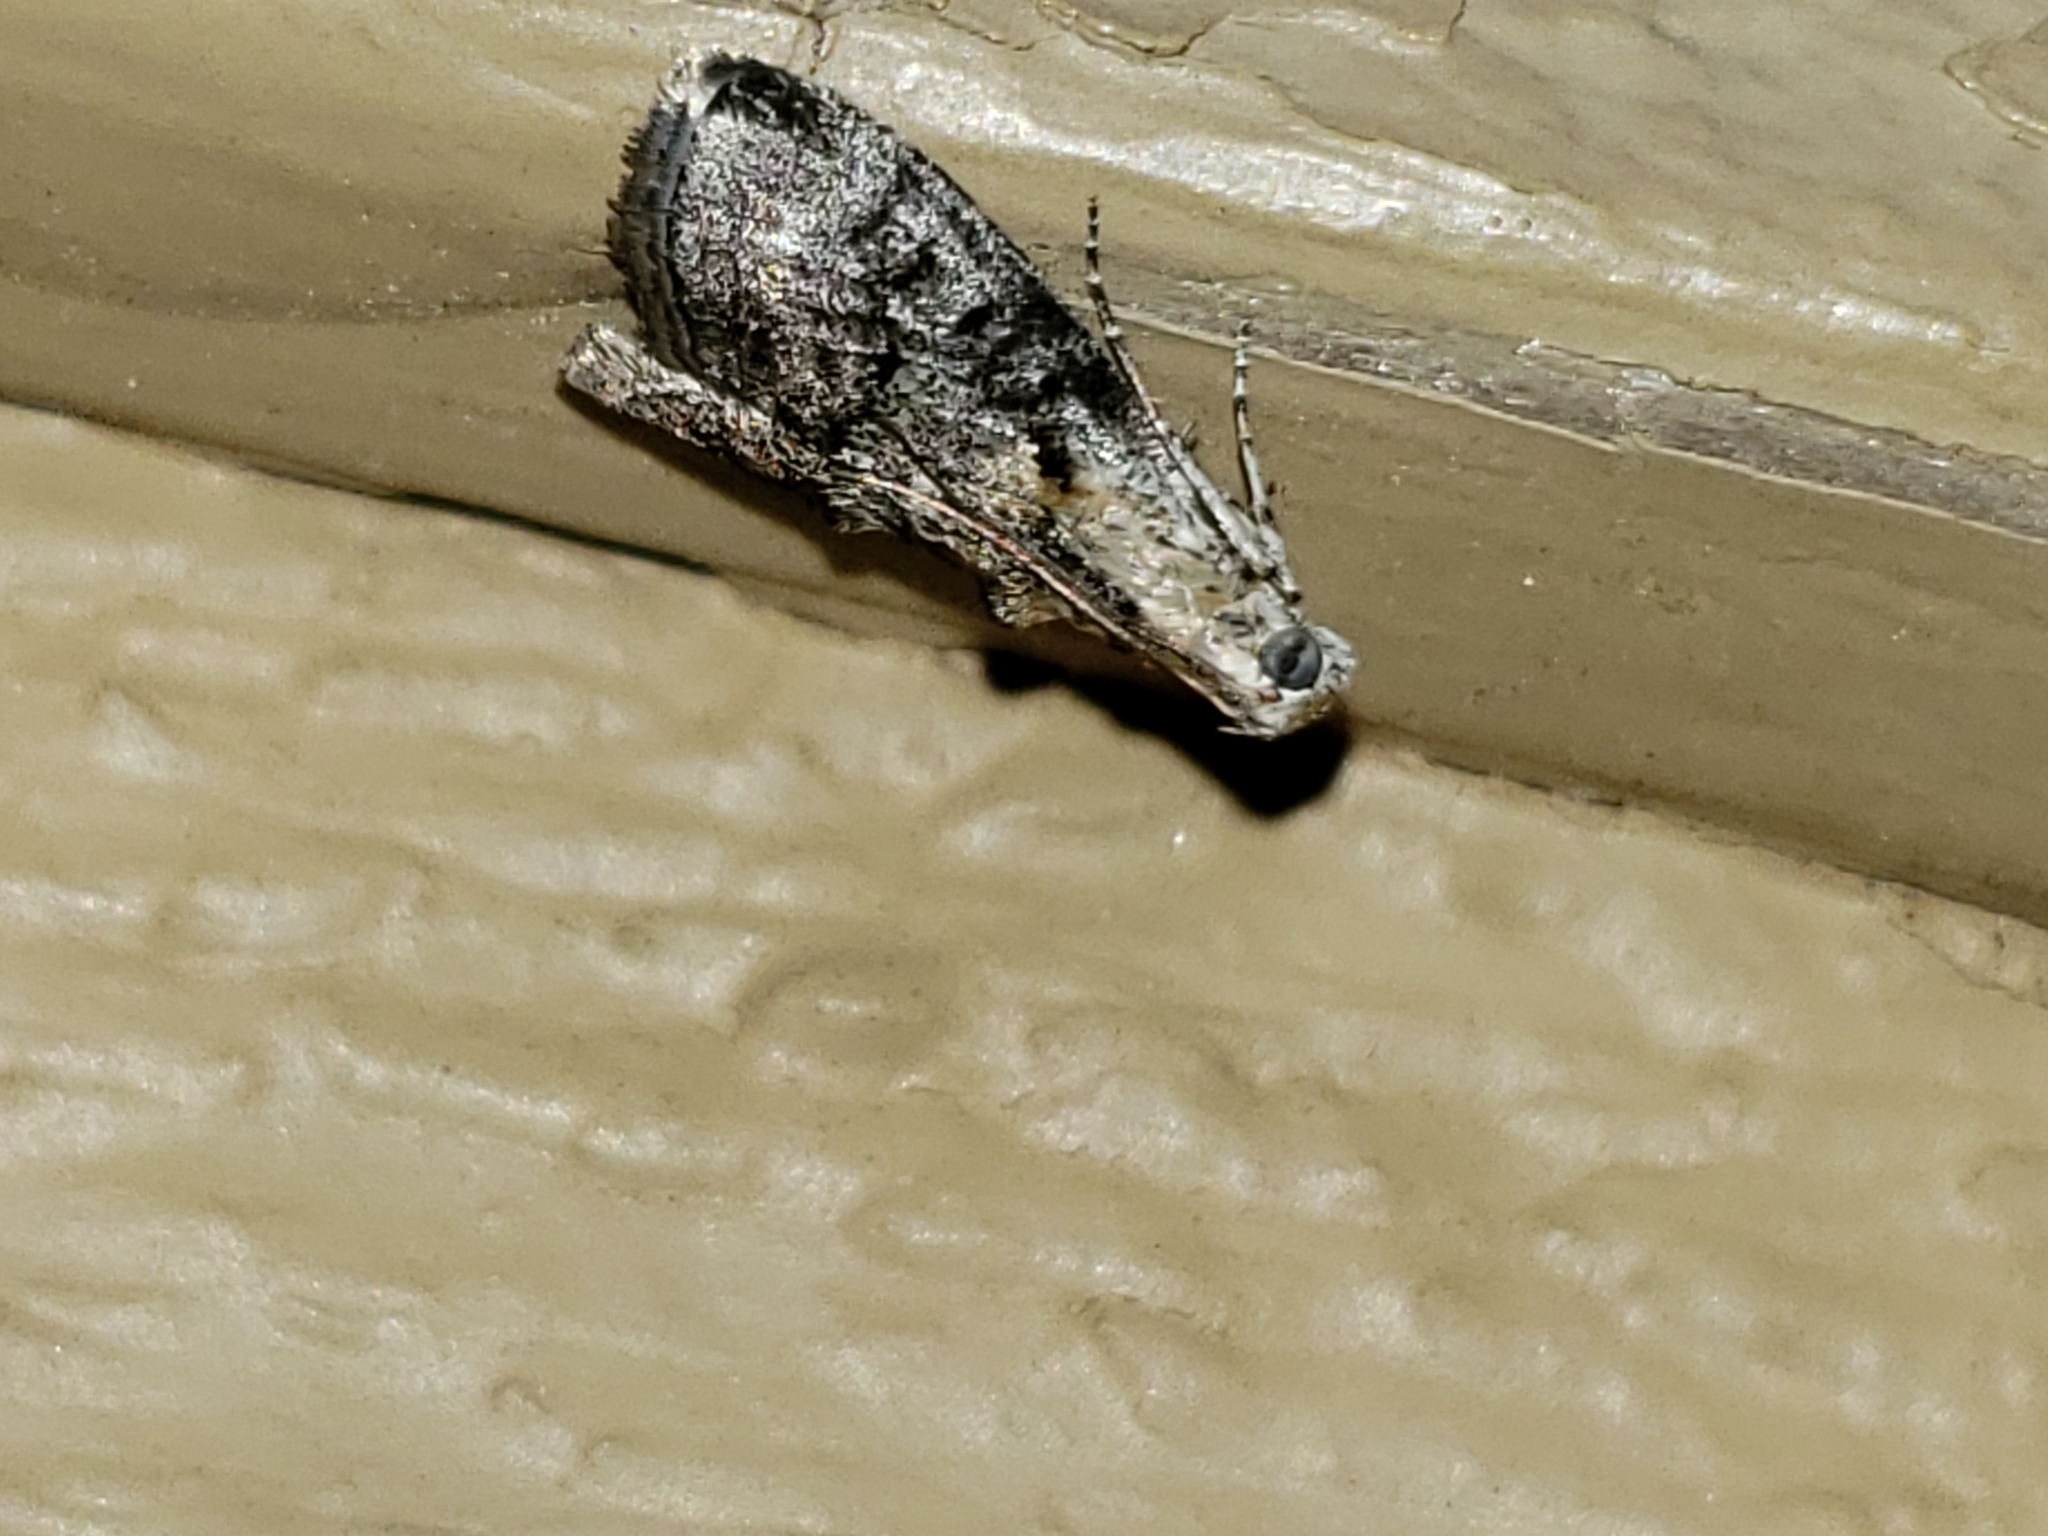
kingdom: Animalia
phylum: Arthropoda
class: Insecta
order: Lepidoptera
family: Pyralidae
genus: Pococera
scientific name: Pococera expandens
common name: Striped oak webworm moth
